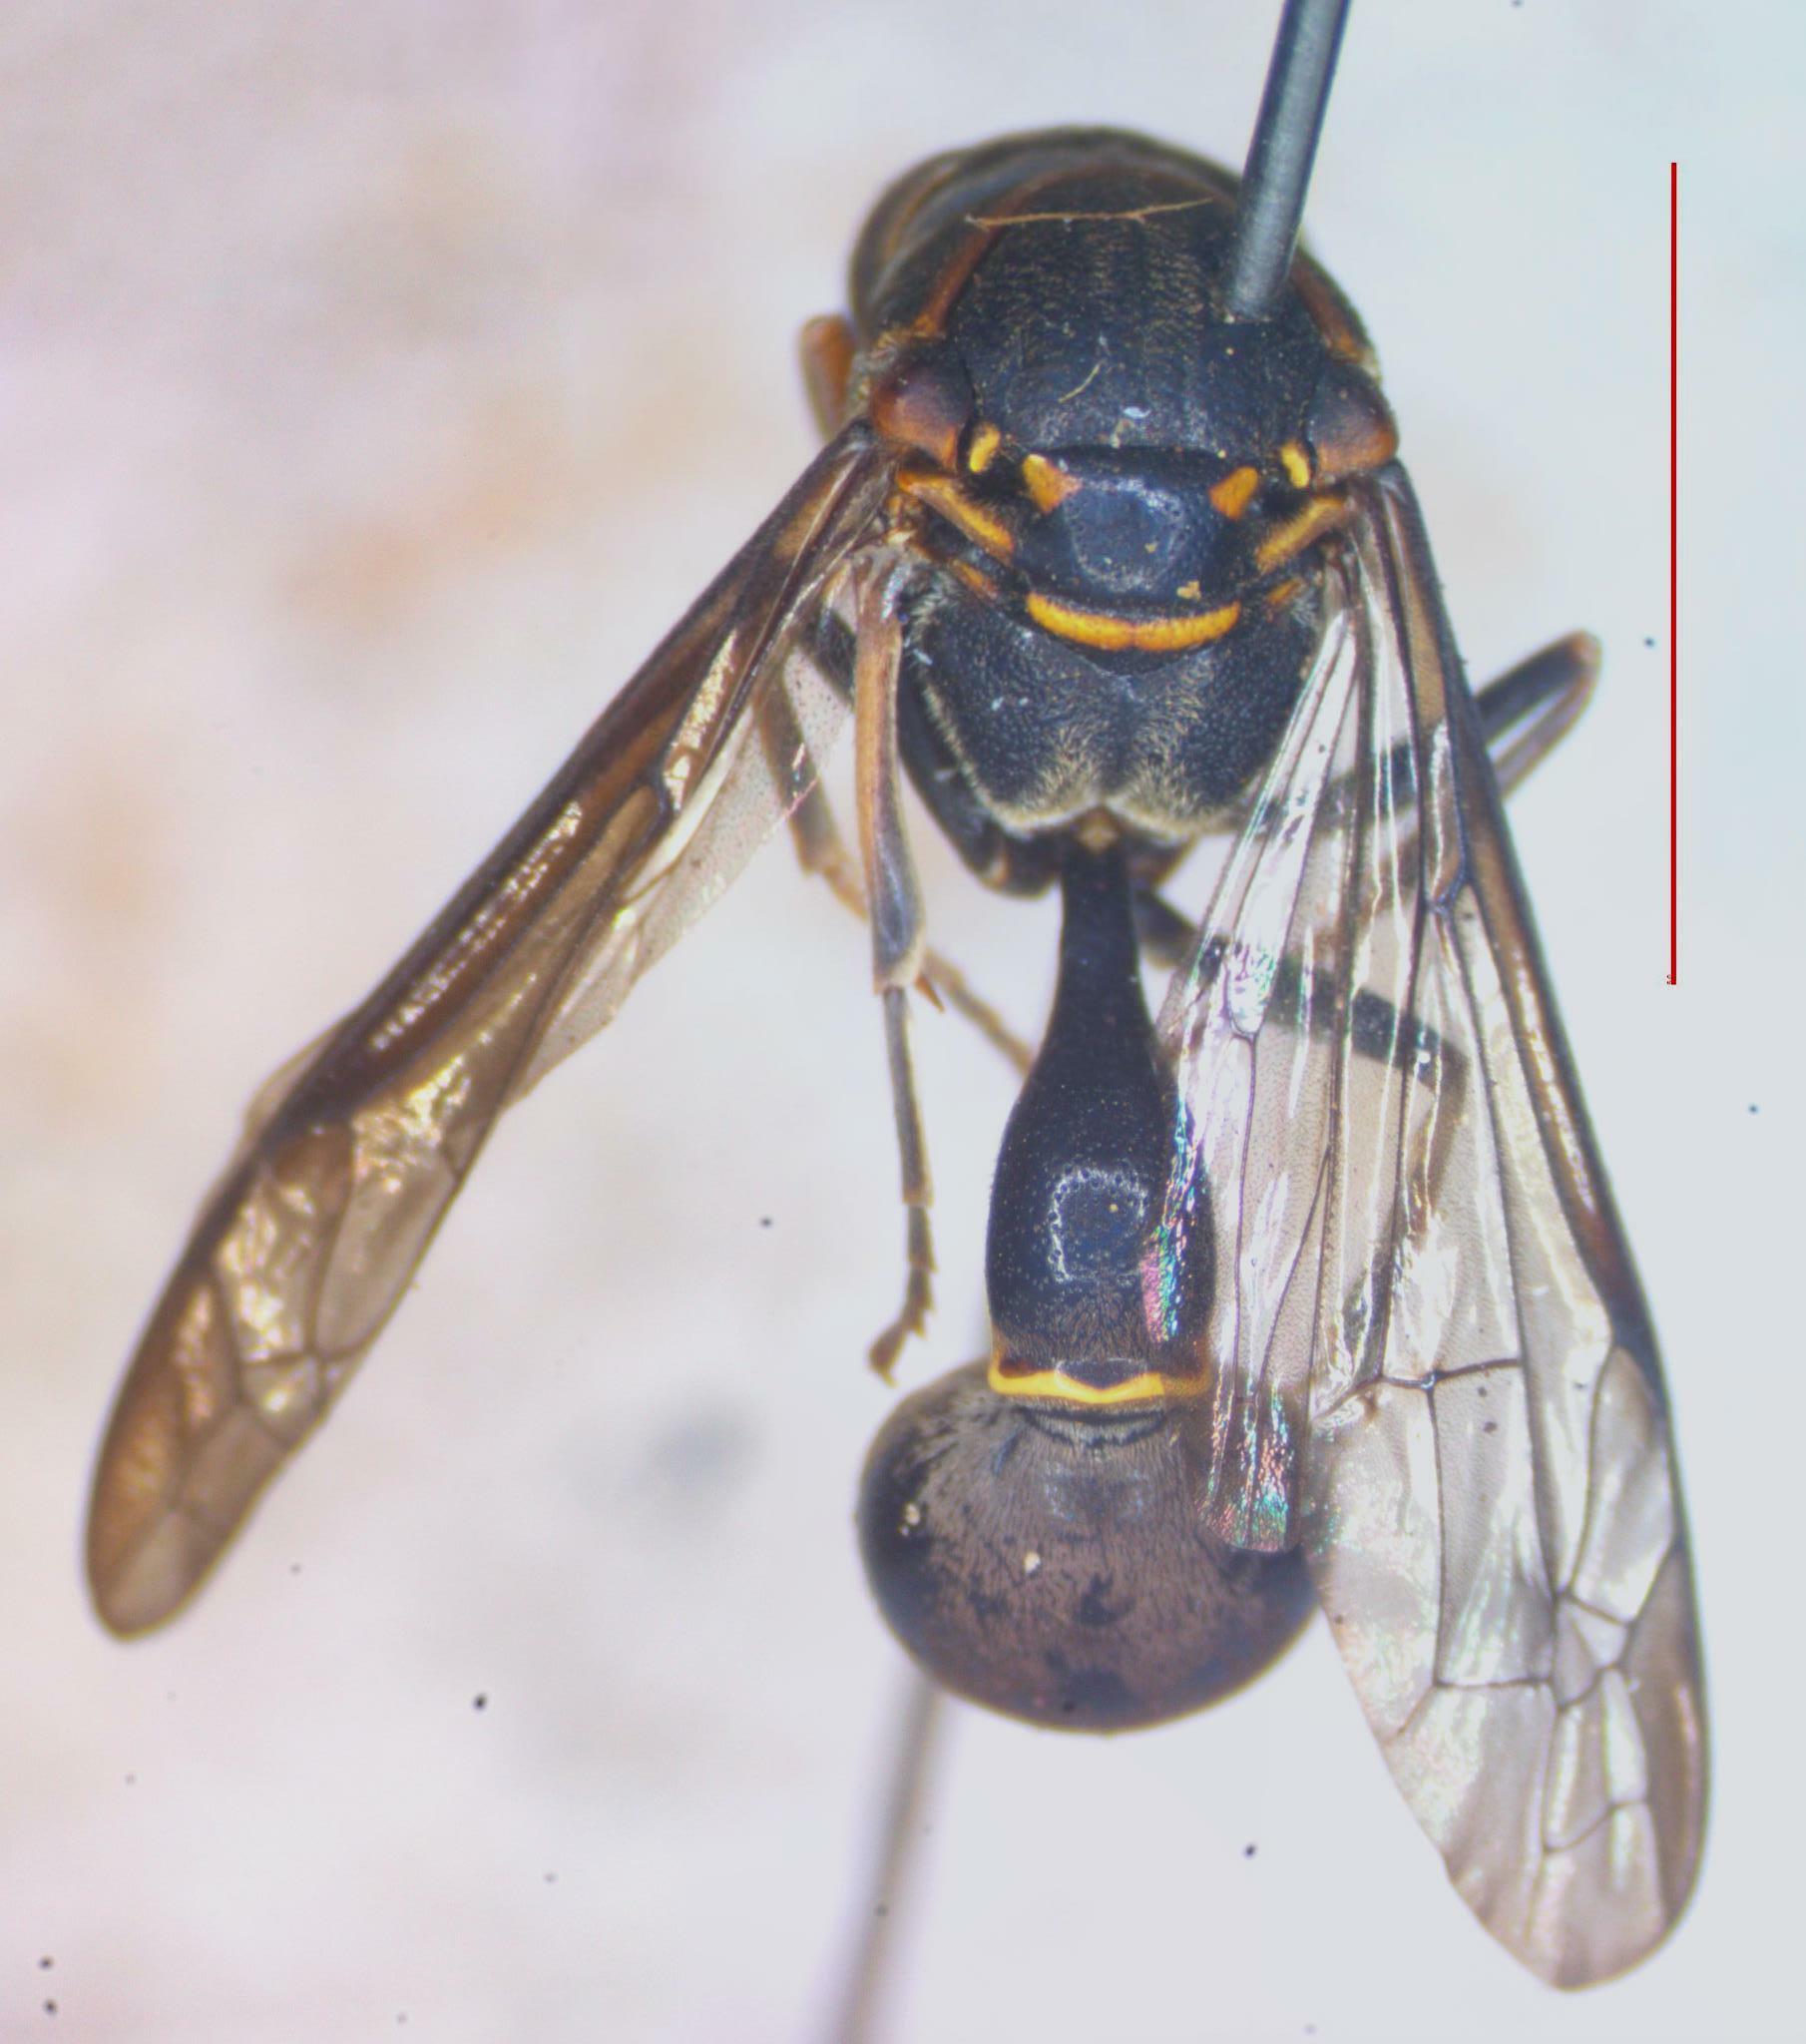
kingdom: Animalia
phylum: Arthropoda
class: Insecta
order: Hymenoptera
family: Eumenidae
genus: Pachymenes
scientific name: Pachymenes novarae
